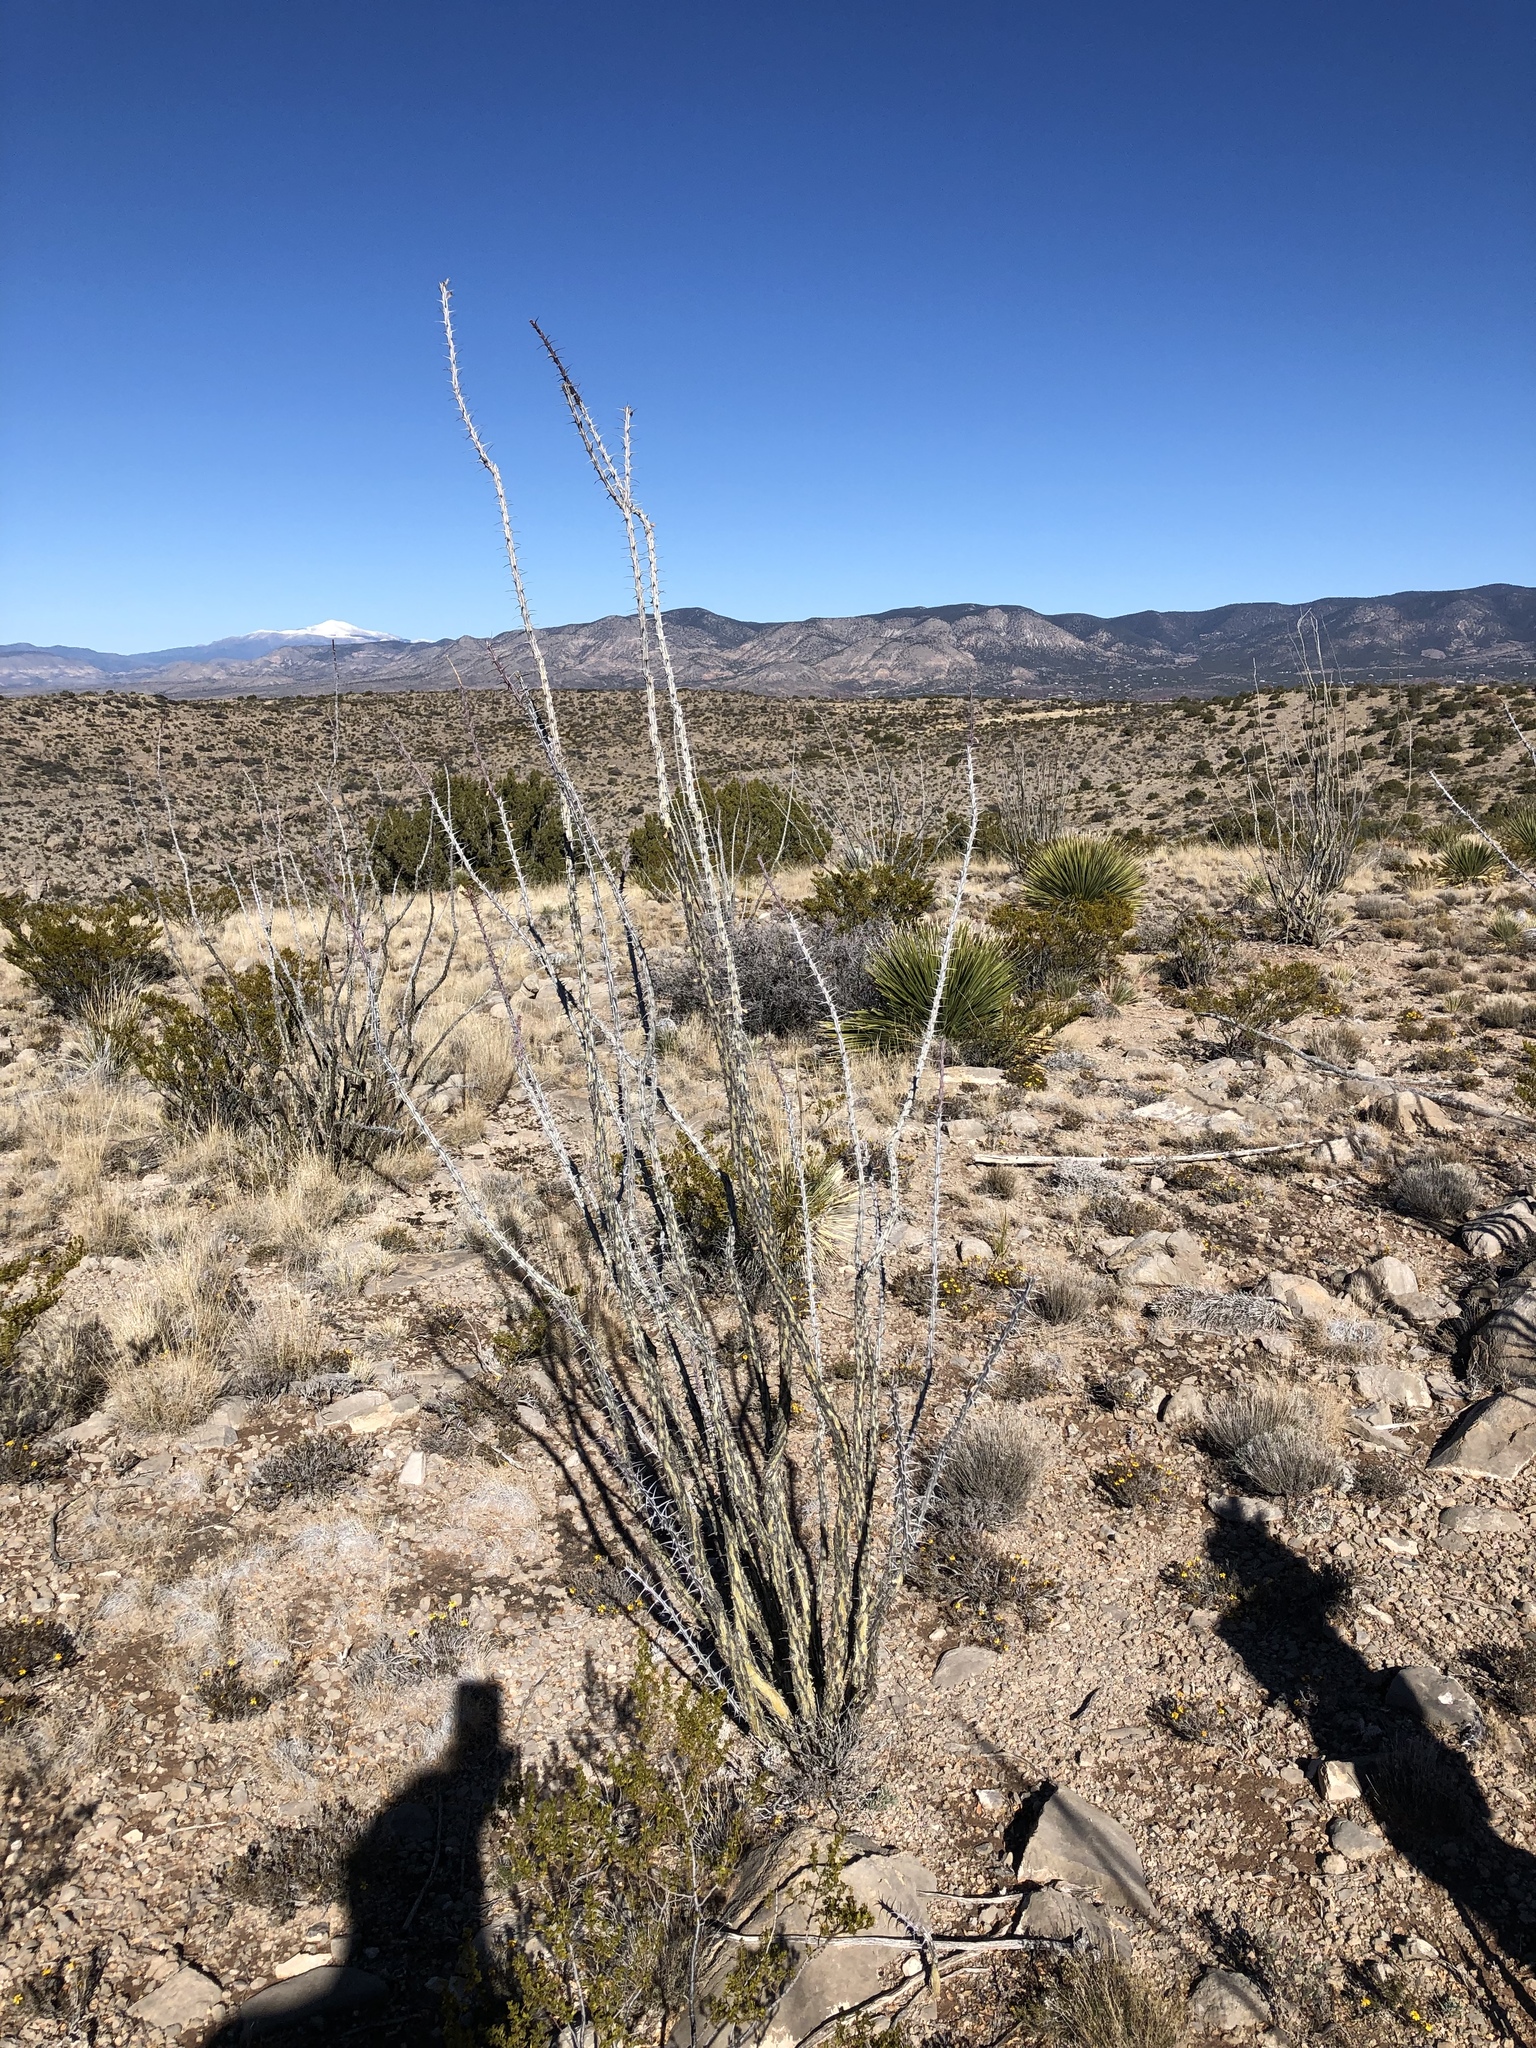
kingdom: Plantae
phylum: Tracheophyta
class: Magnoliopsida
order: Ericales
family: Fouquieriaceae
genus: Fouquieria
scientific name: Fouquieria splendens
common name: Vine-cactus
